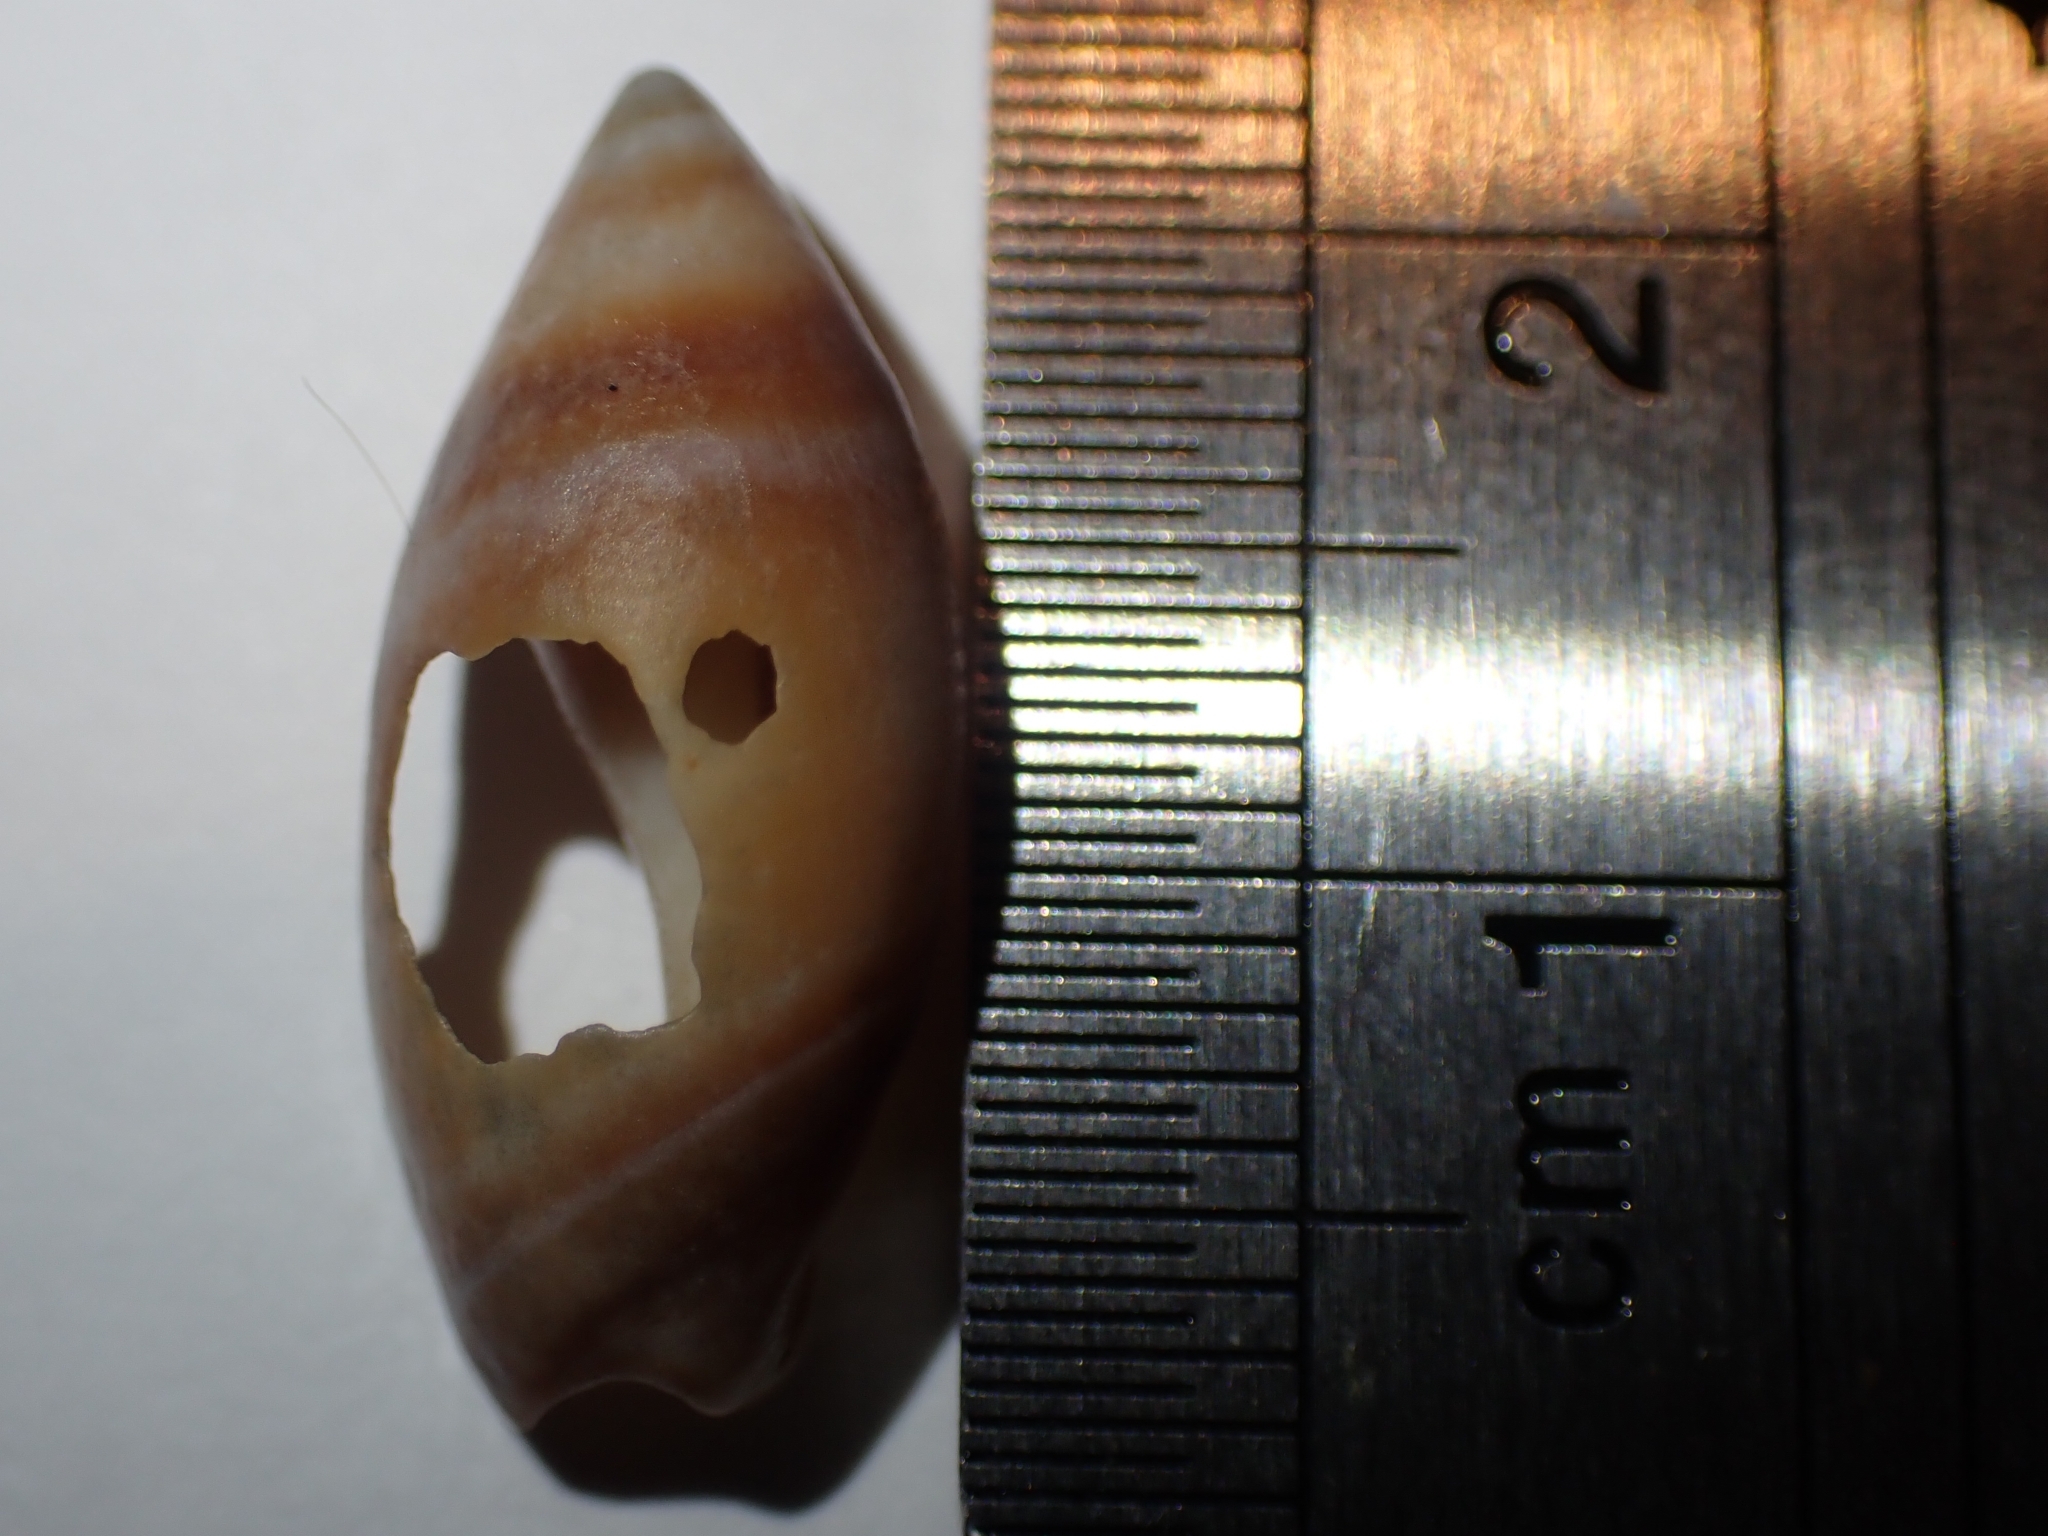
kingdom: Animalia
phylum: Mollusca
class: Gastropoda
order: Neogastropoda
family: Ancillariidae
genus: Amalda
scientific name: Amalda australis
